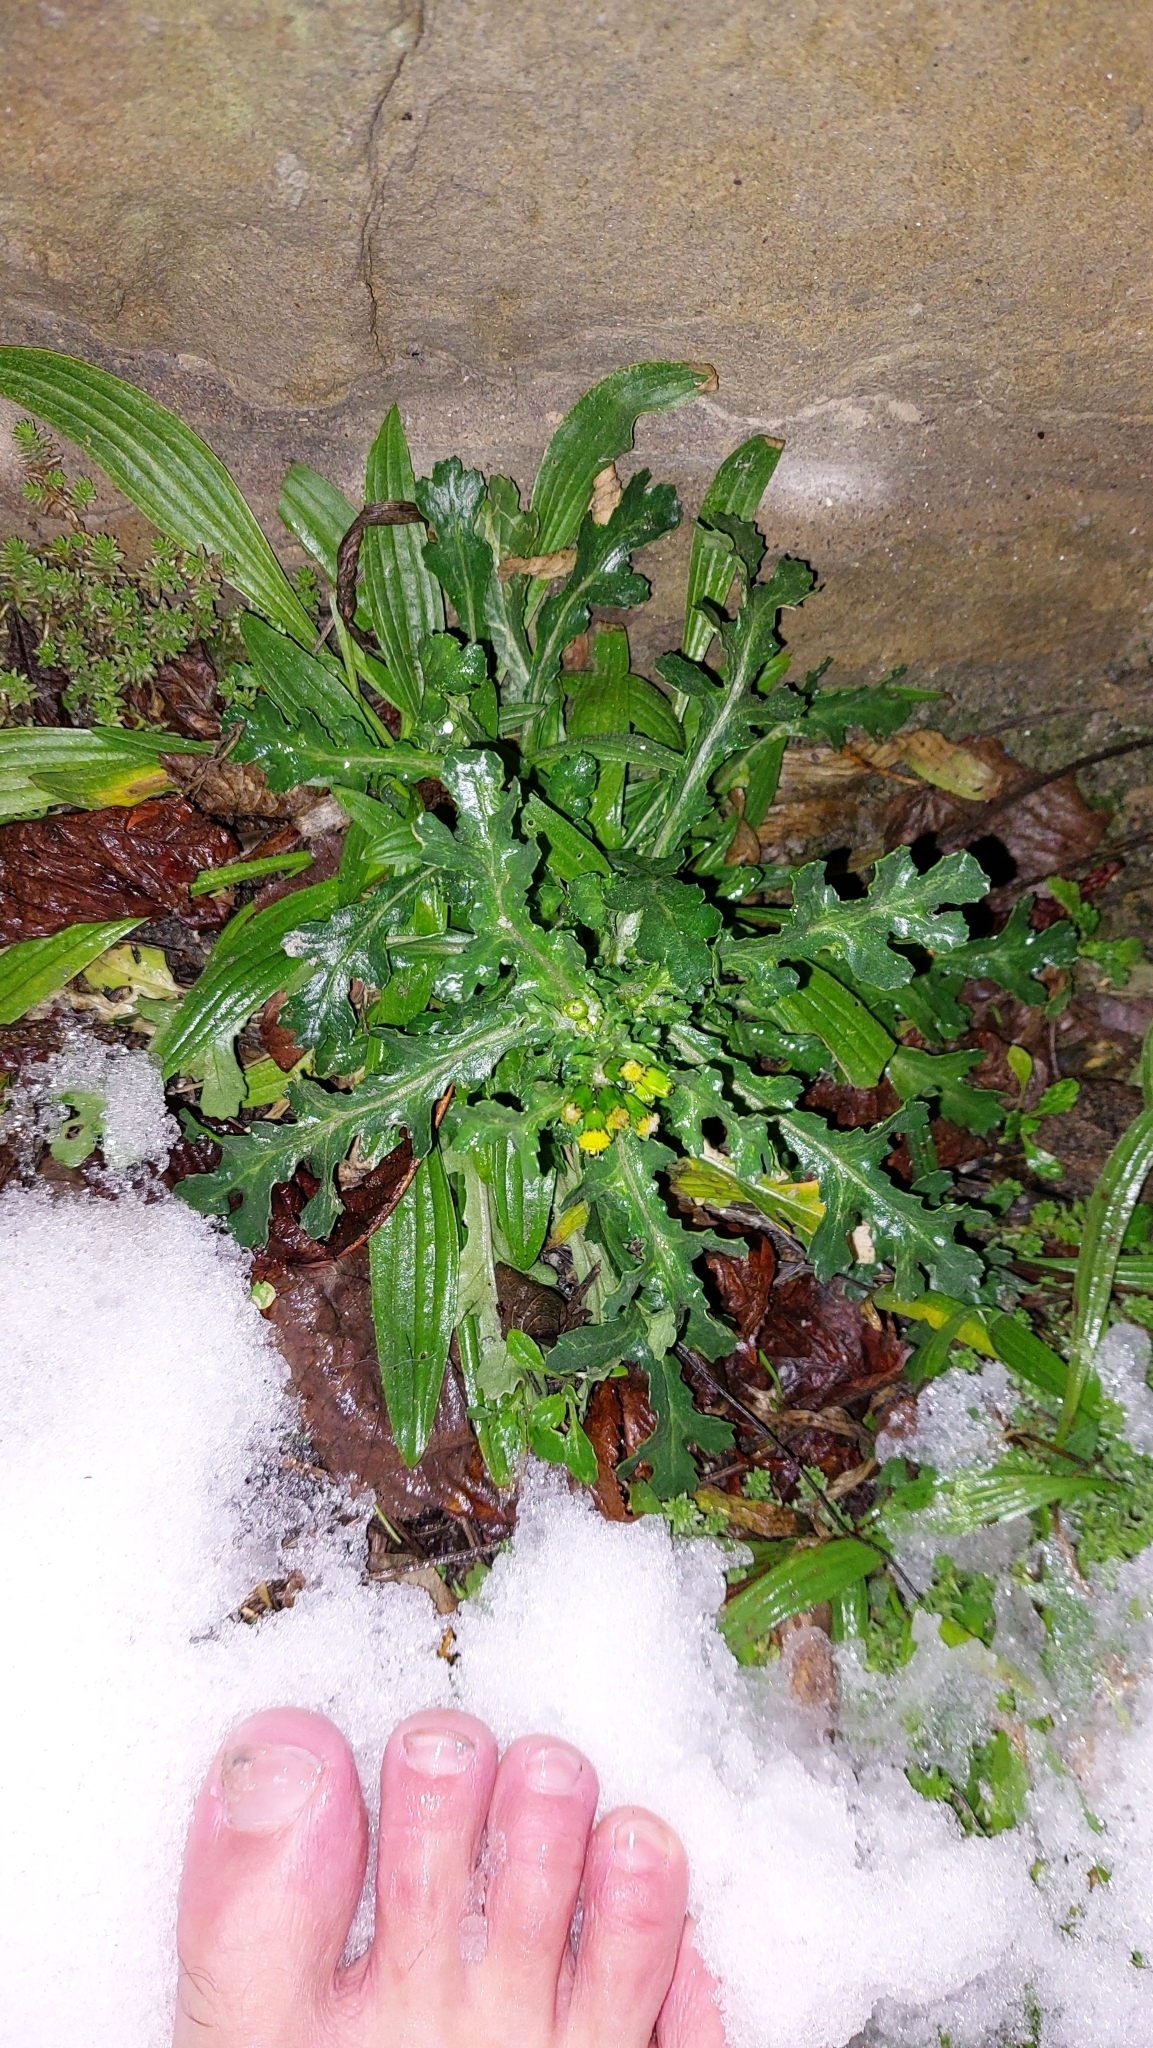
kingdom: Plantae
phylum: Tracheophyta
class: Magnoliopsida
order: Lamiales
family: Plantaginaceae
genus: Plantago
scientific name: Plantago lanceolata
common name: Ribwort plantain
